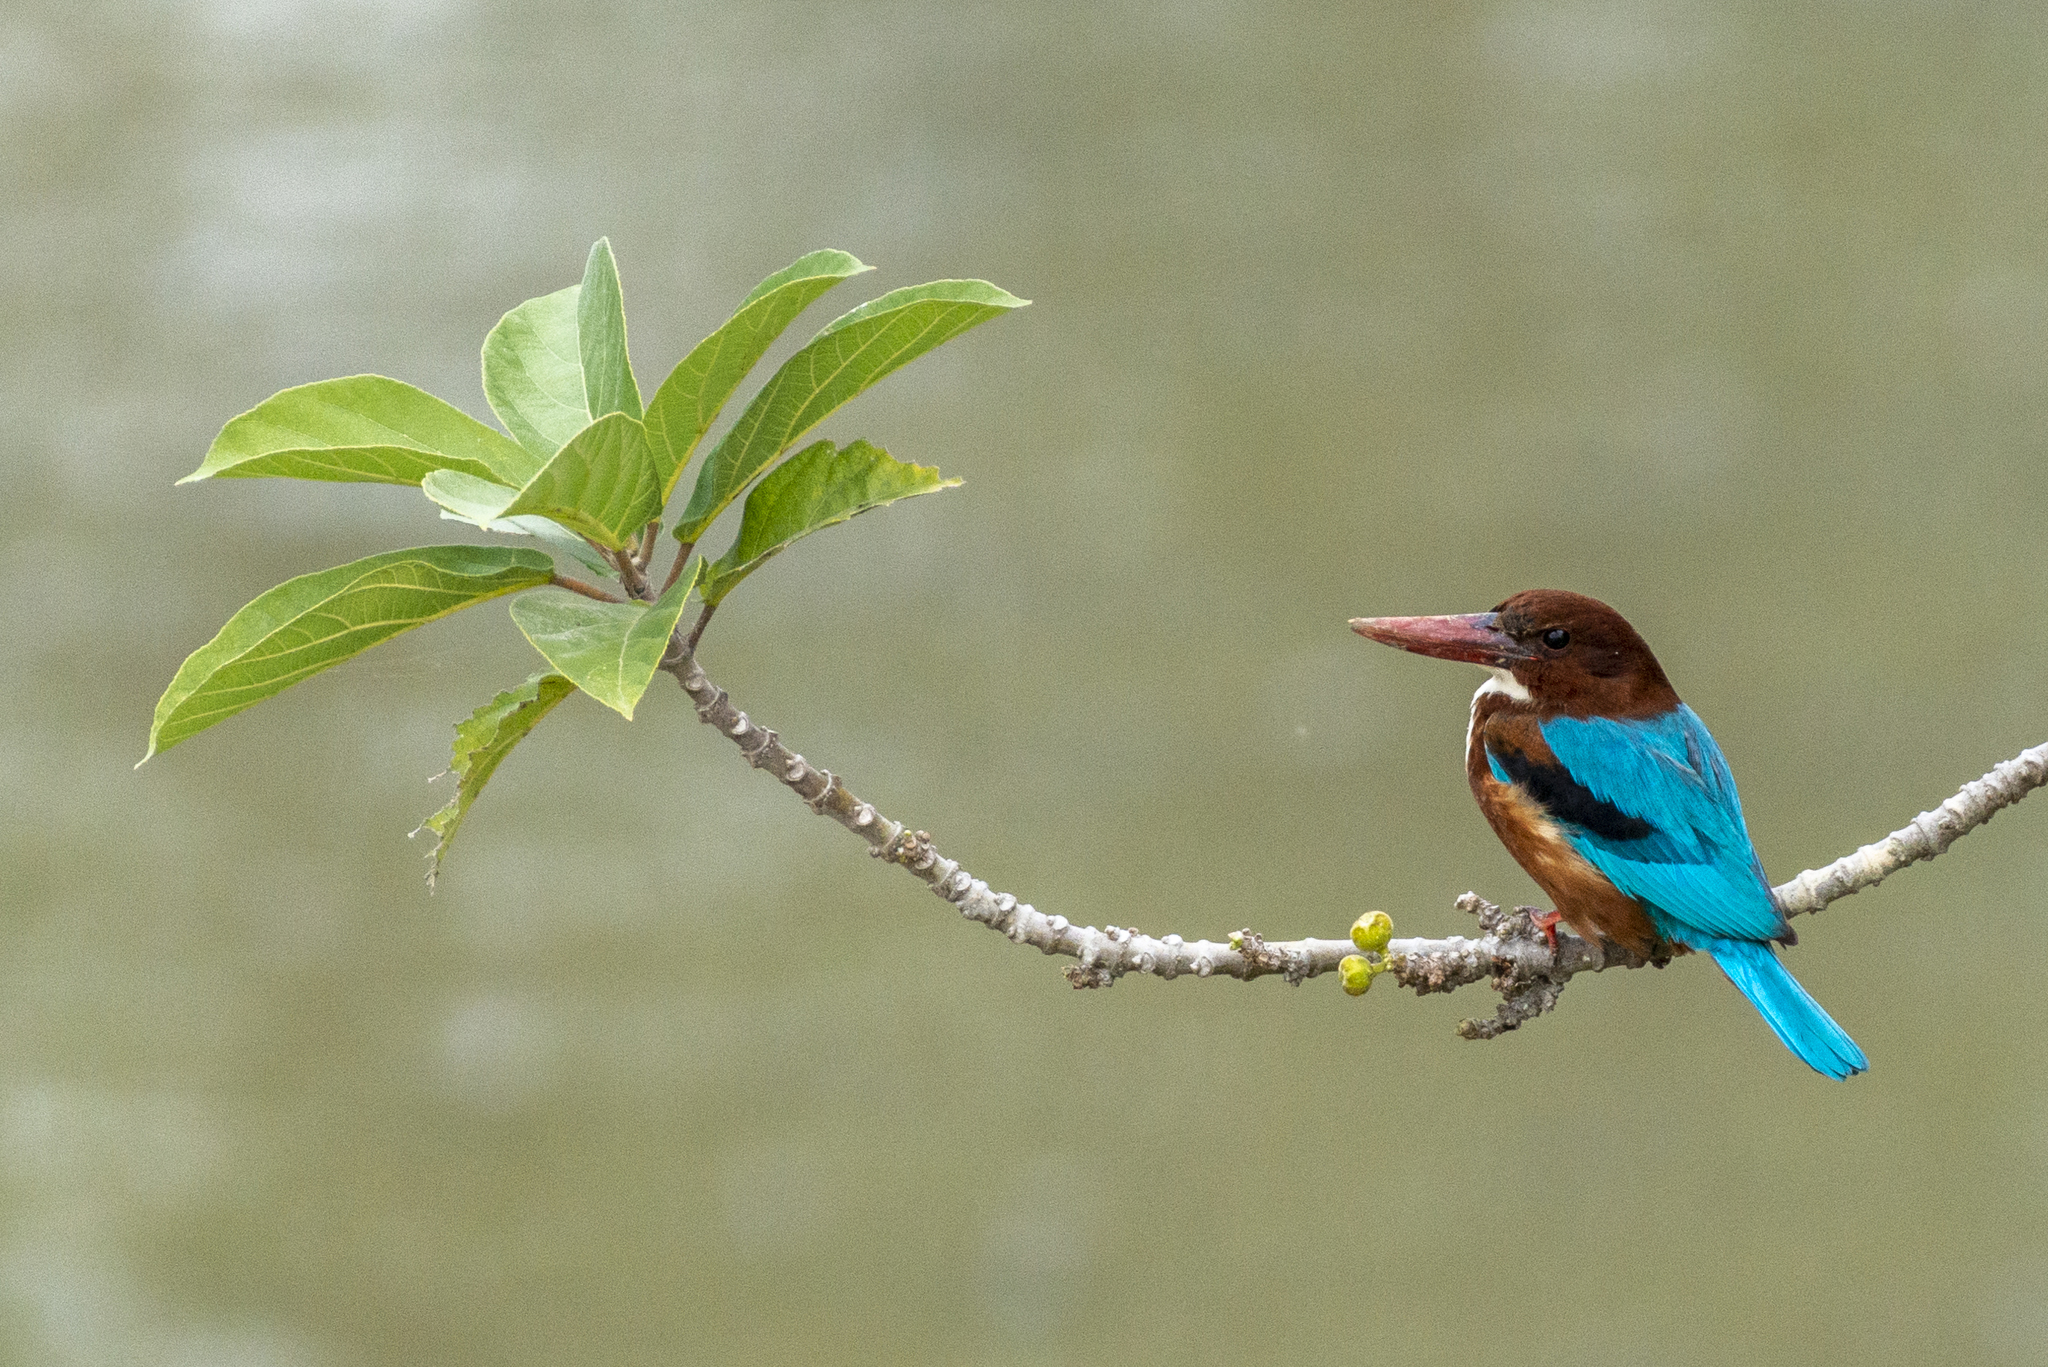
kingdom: Animalia
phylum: Chordata
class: Aves
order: Coraciiformes
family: Alcedinidae
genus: Halcyon
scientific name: Halcyon smyrnensis
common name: White-throated kingfisher
